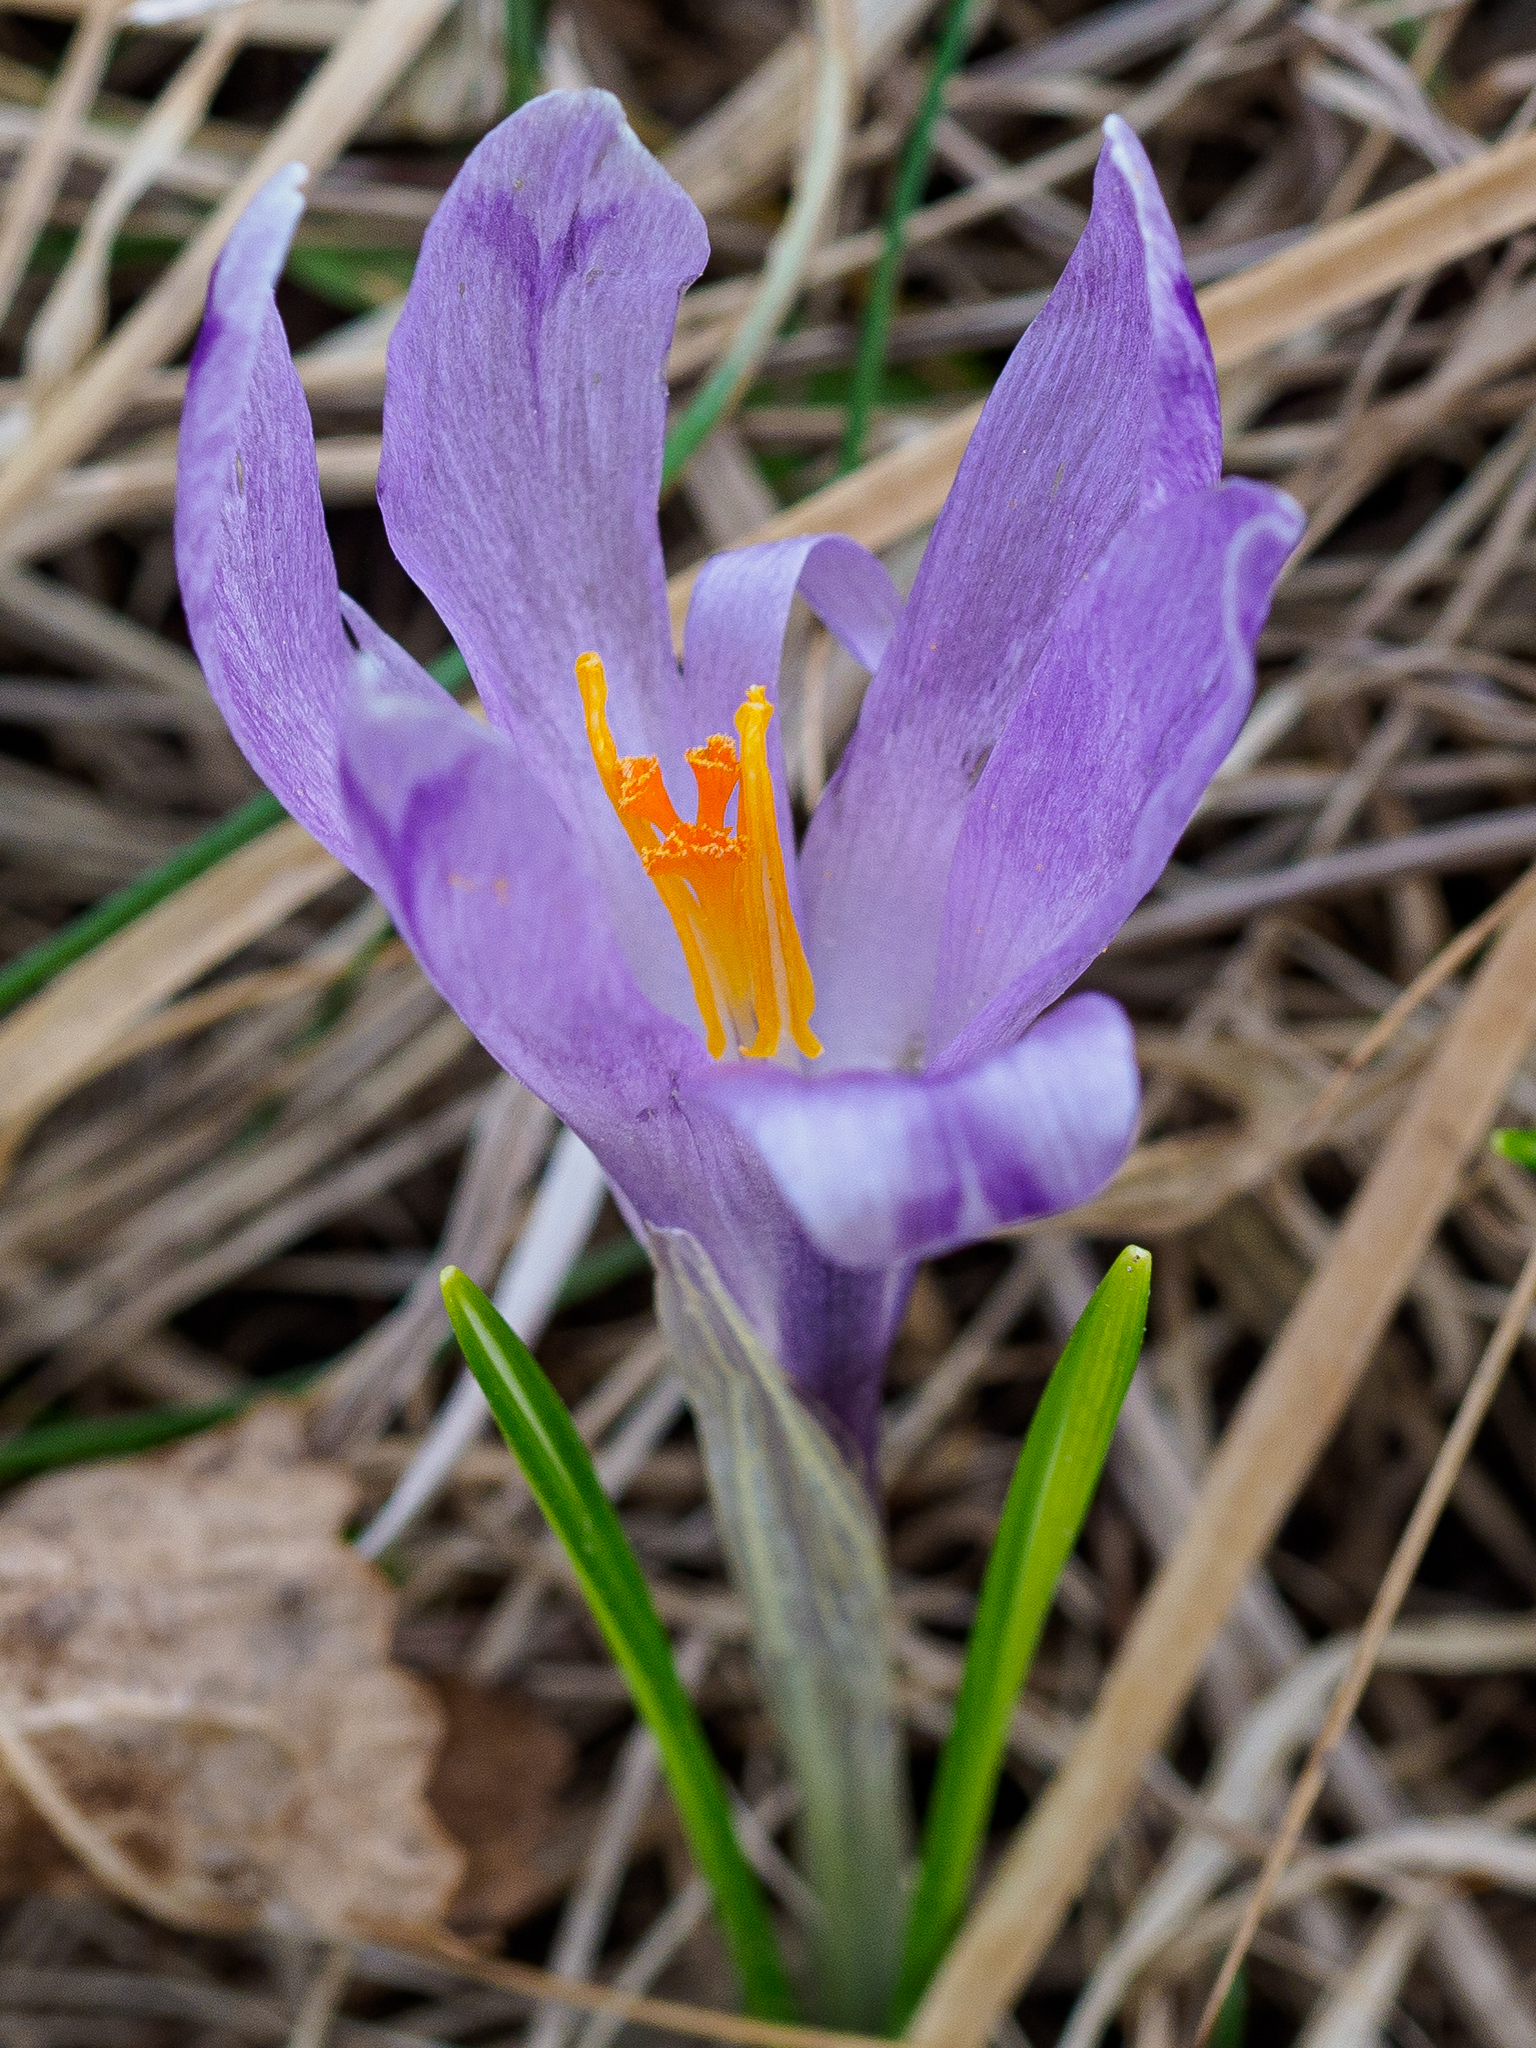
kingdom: Plantae
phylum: Tracheophyta
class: Liliopsida
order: Asparagales
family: Iridaceae
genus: Crocus
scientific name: Crocus heuffelianus
